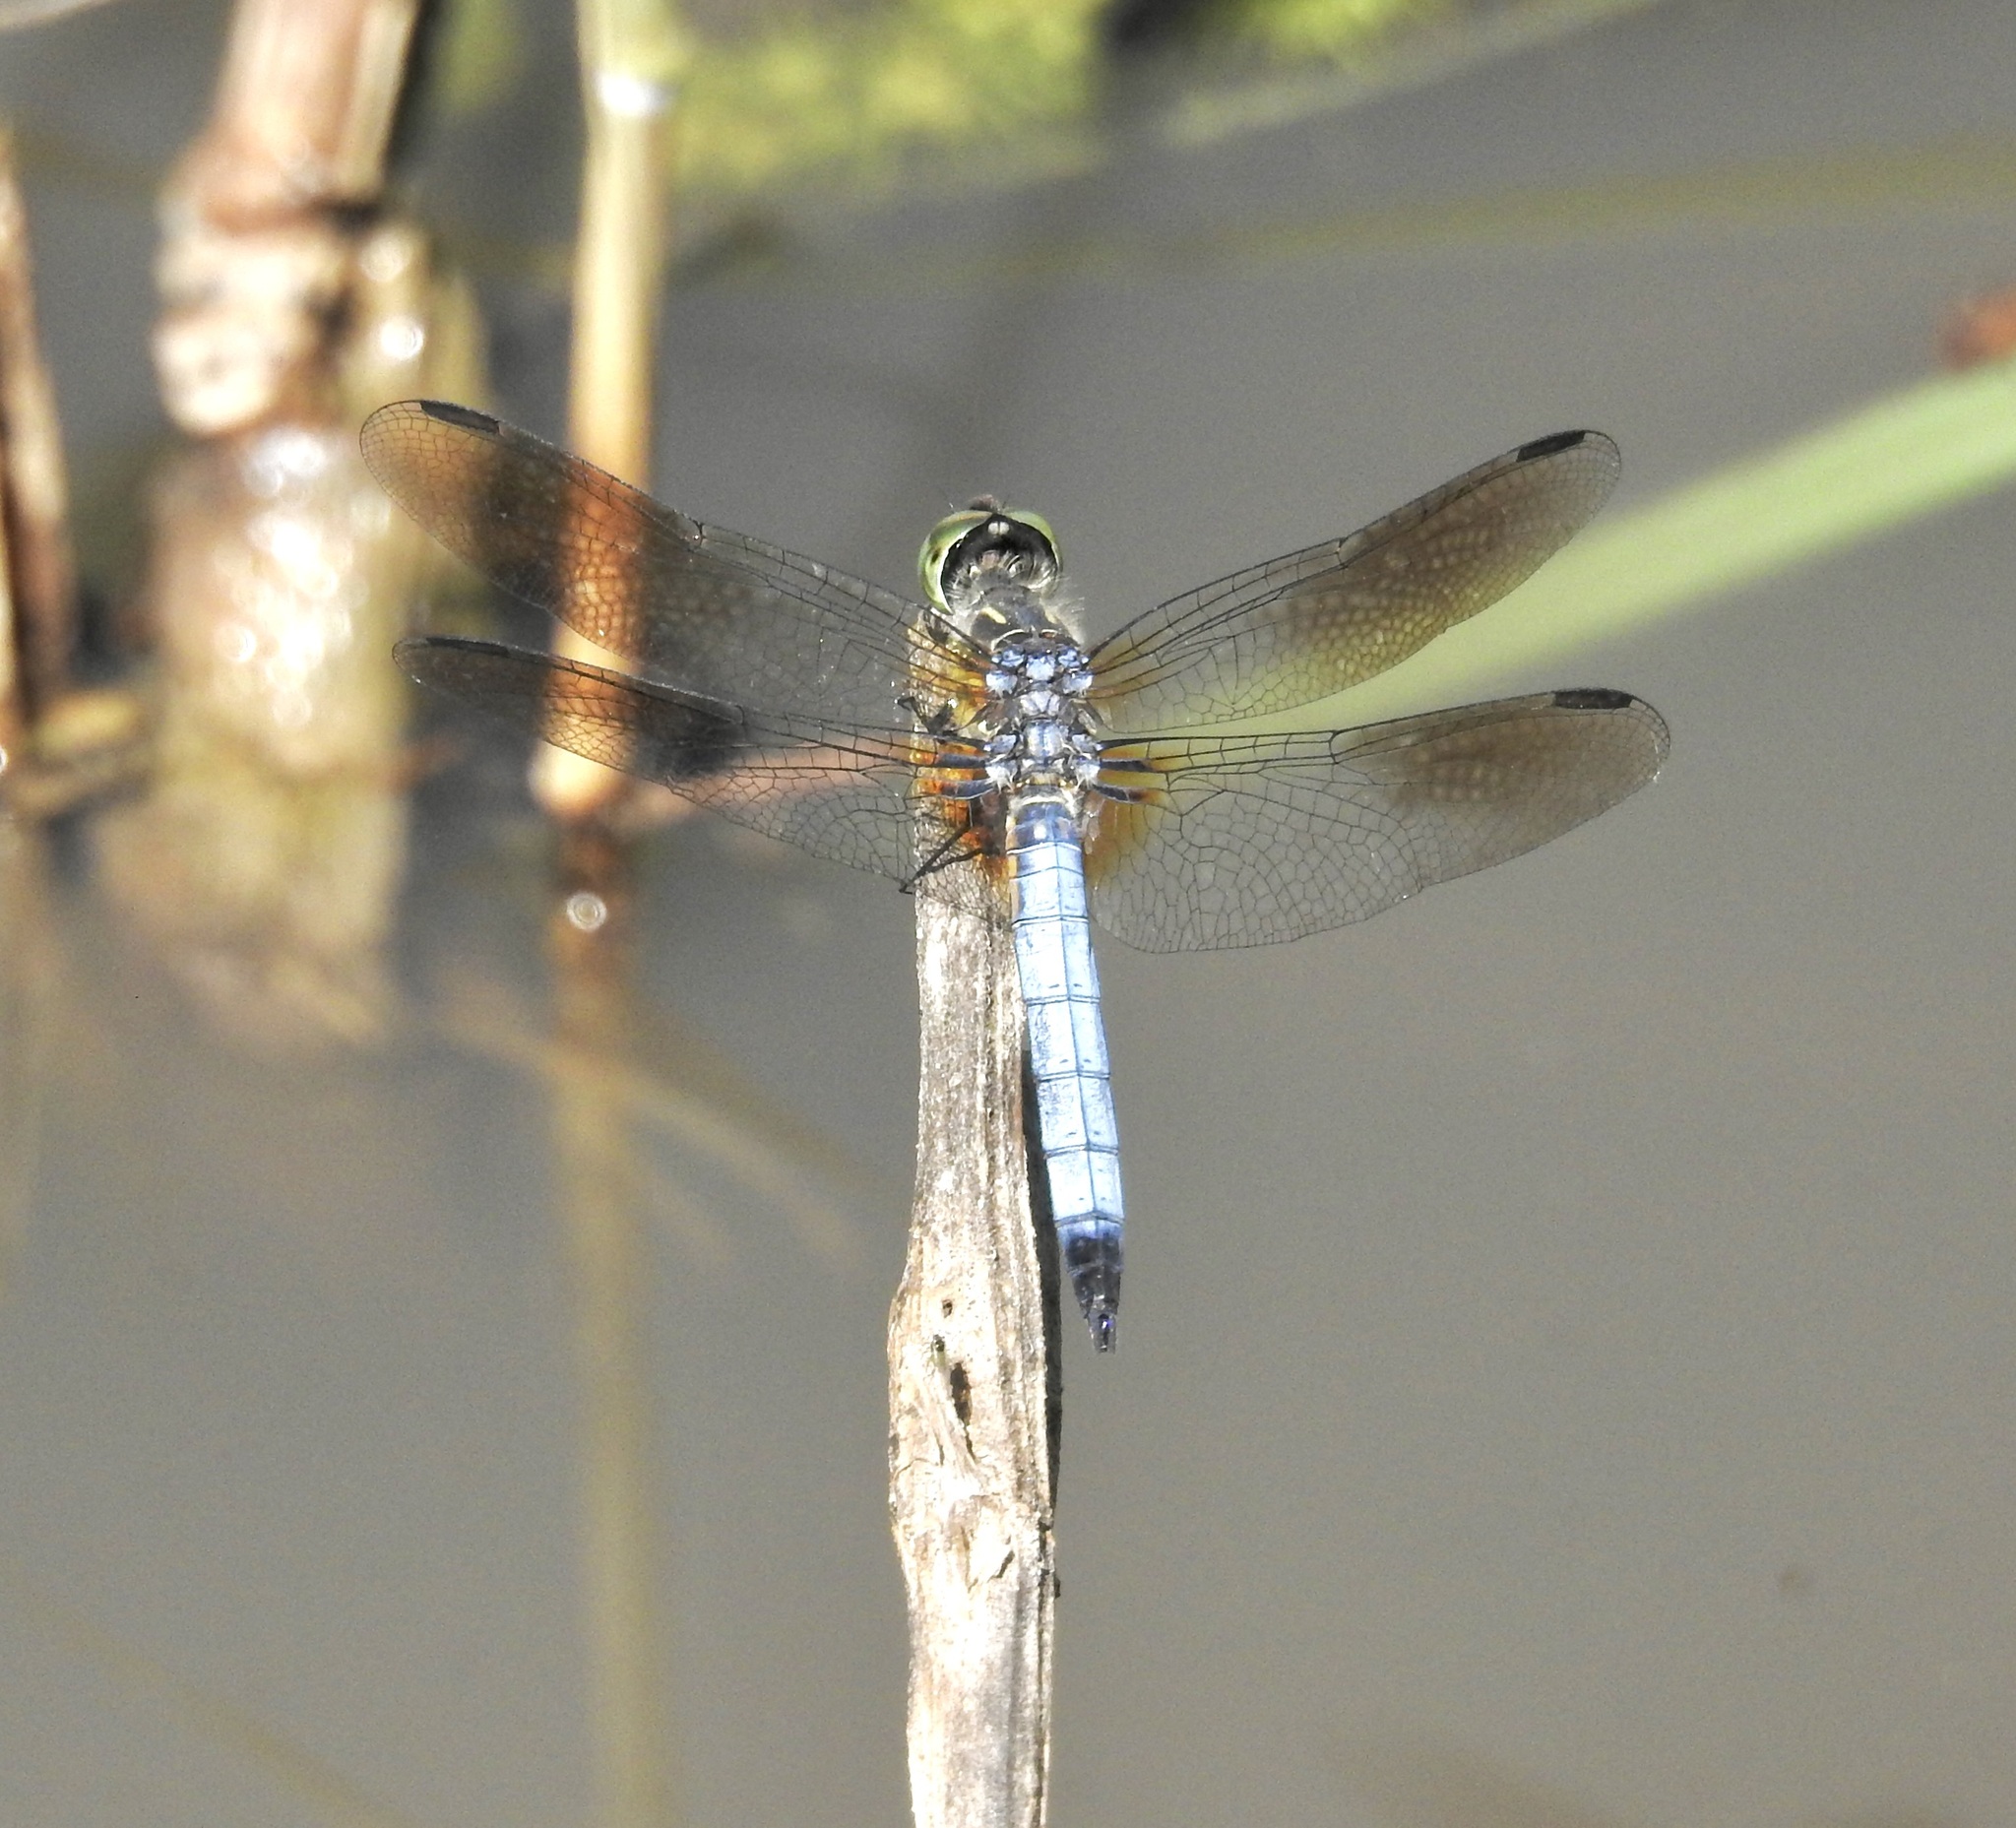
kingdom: Animalia
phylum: Arthropoda
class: Insecta
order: Odonata
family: Libellulidae
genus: Pachydiplax
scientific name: Pachydiplax longipennis
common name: Blue dasher
